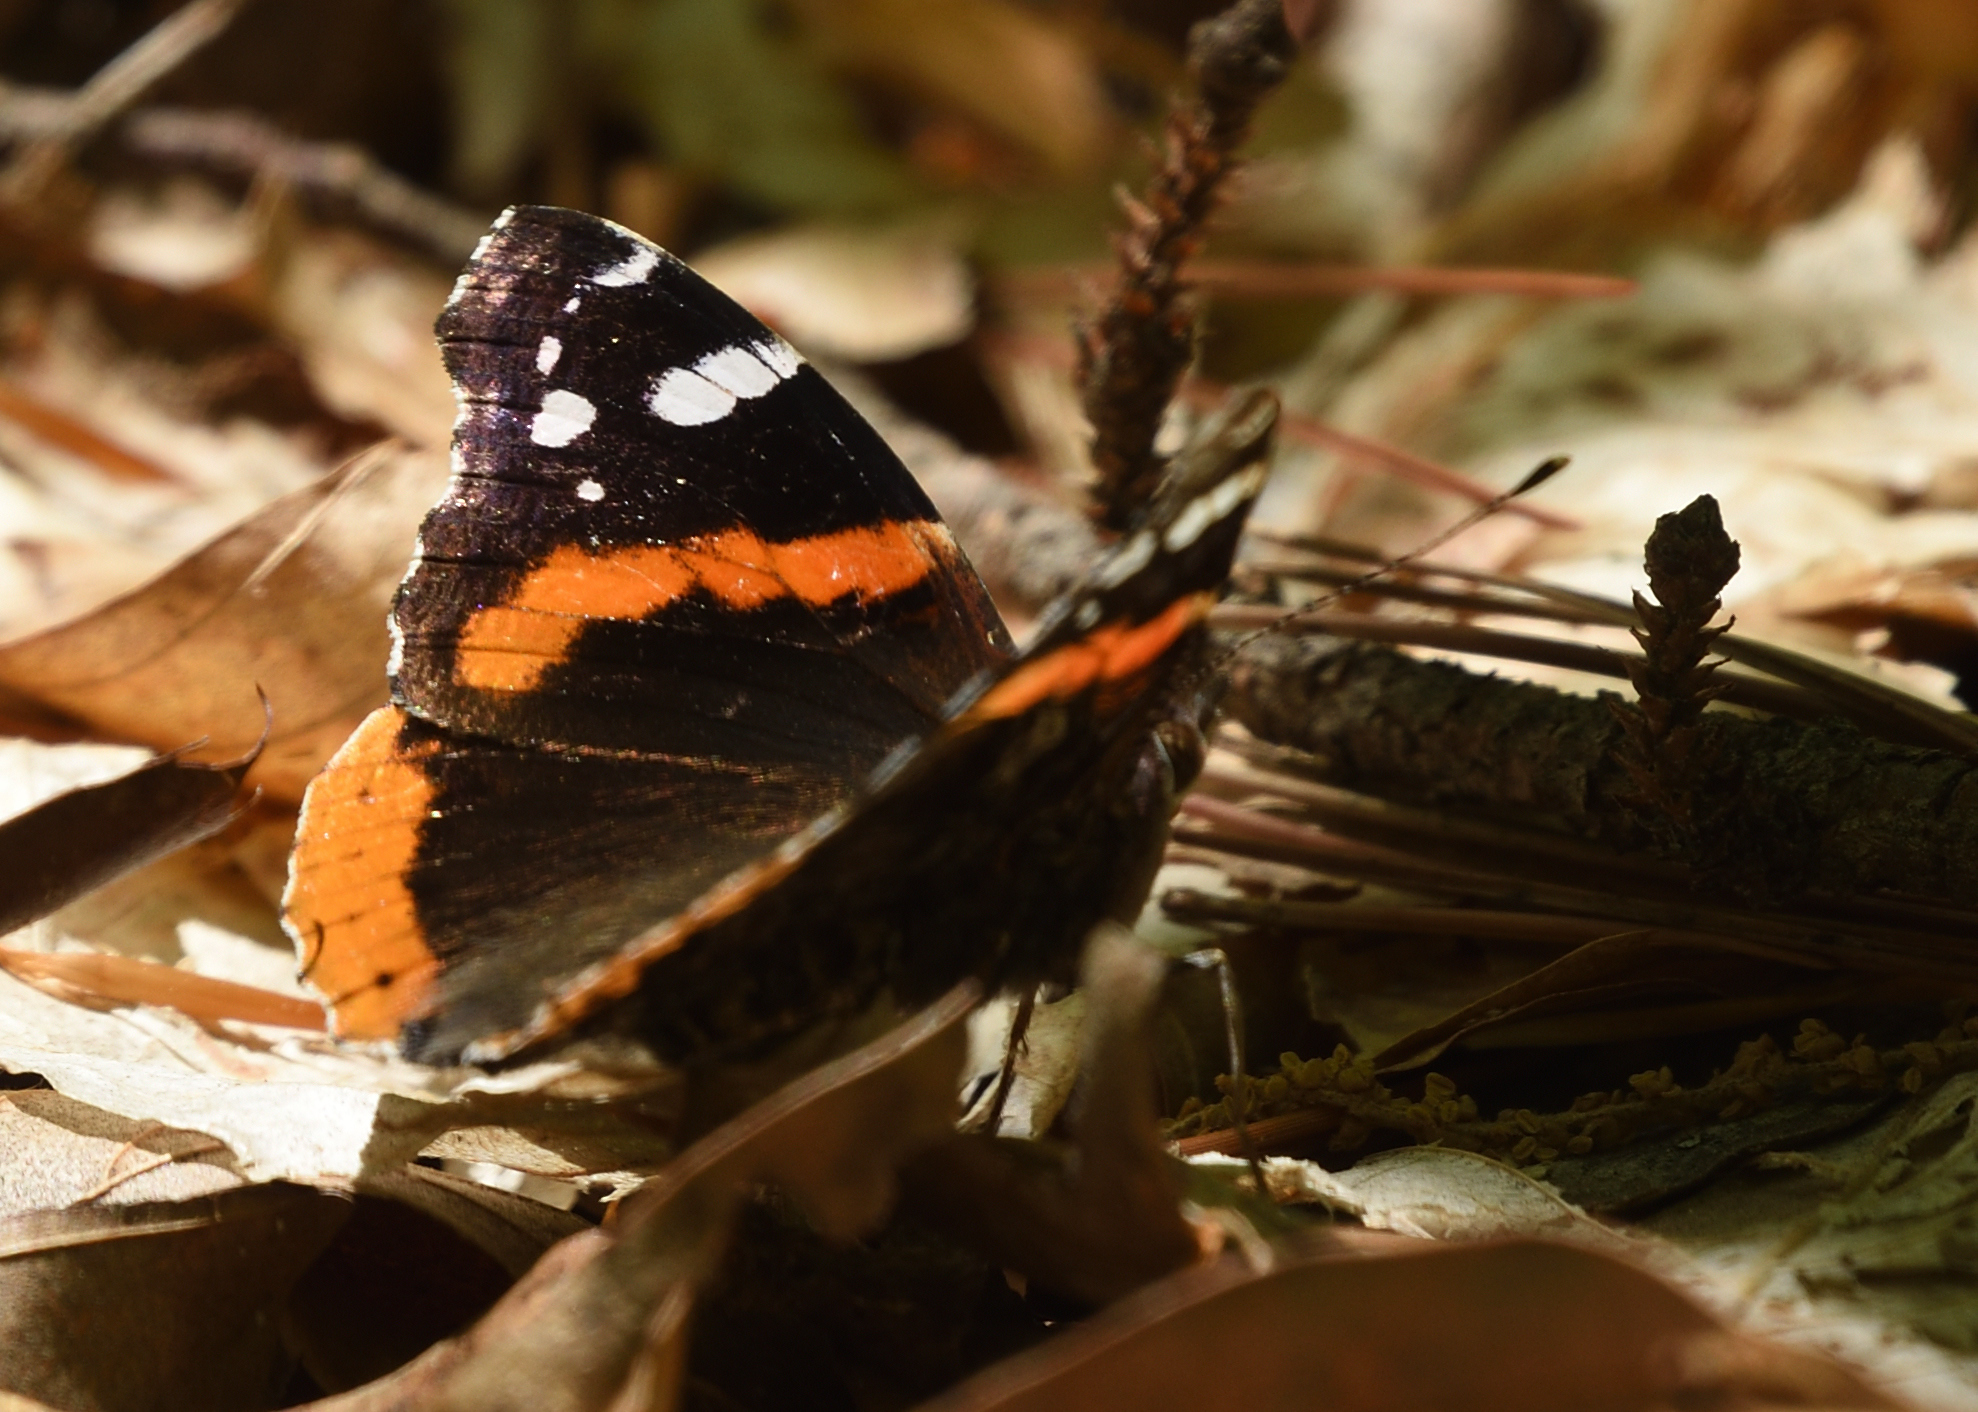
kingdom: Animalia
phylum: Arthropoda
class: Insecta
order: Lepidoptera
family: Nymphalidae
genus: Vanessa
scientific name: Vanessa atalanta
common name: Red admiral
